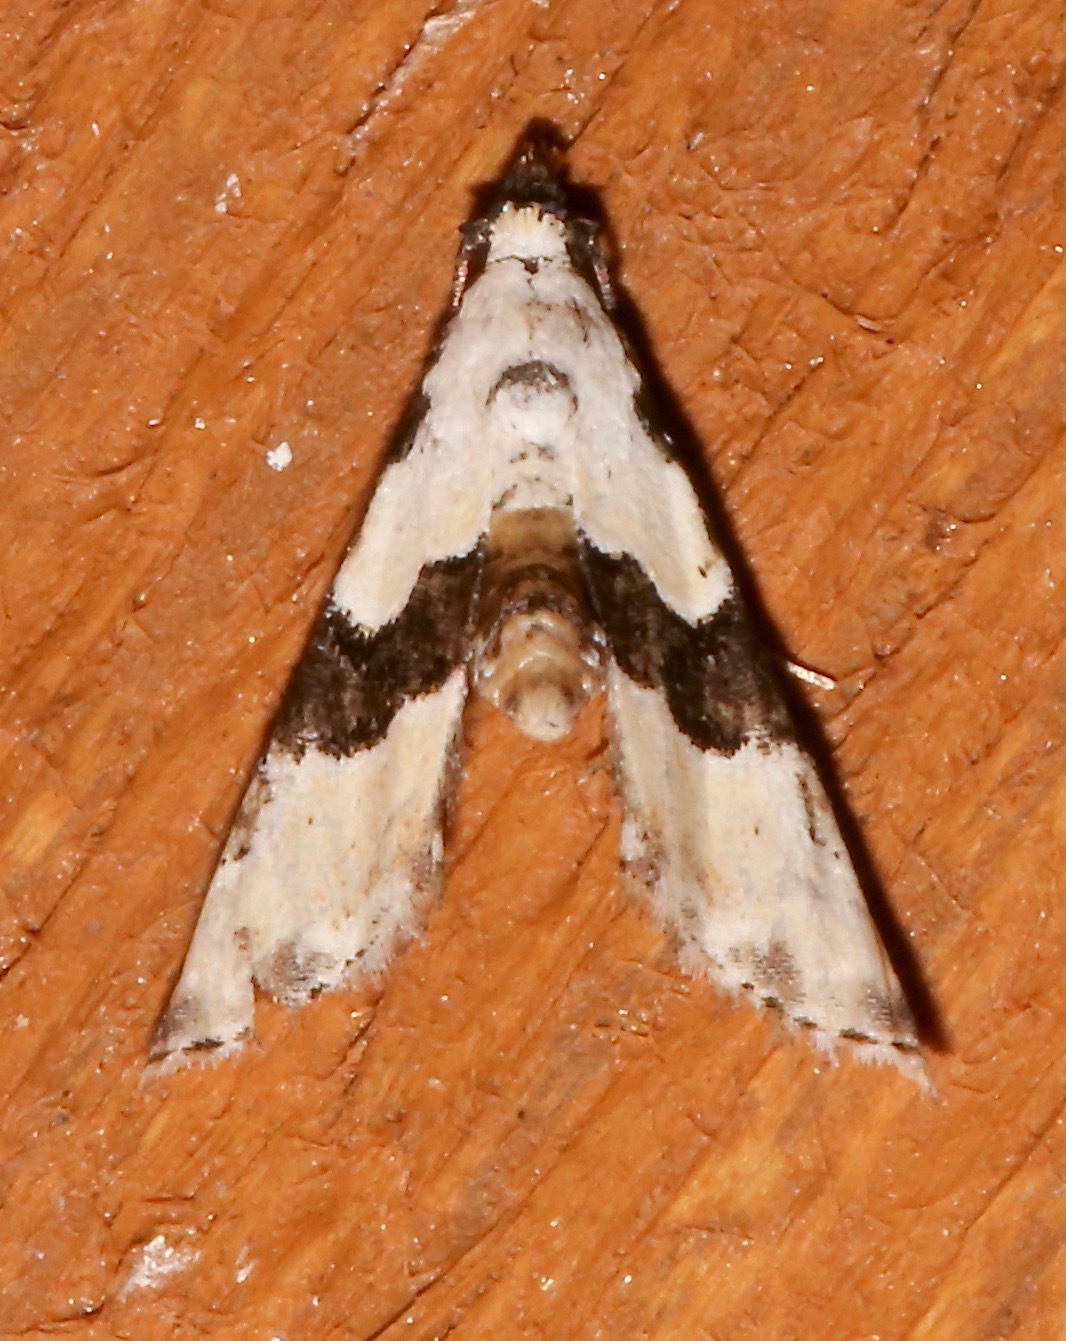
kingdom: Animalia
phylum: Arthropoda
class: Insecta
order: Lepidoptera
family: Noctuidae
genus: Nigetia
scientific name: Nigetia formosalis
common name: Thin-winged owlet
